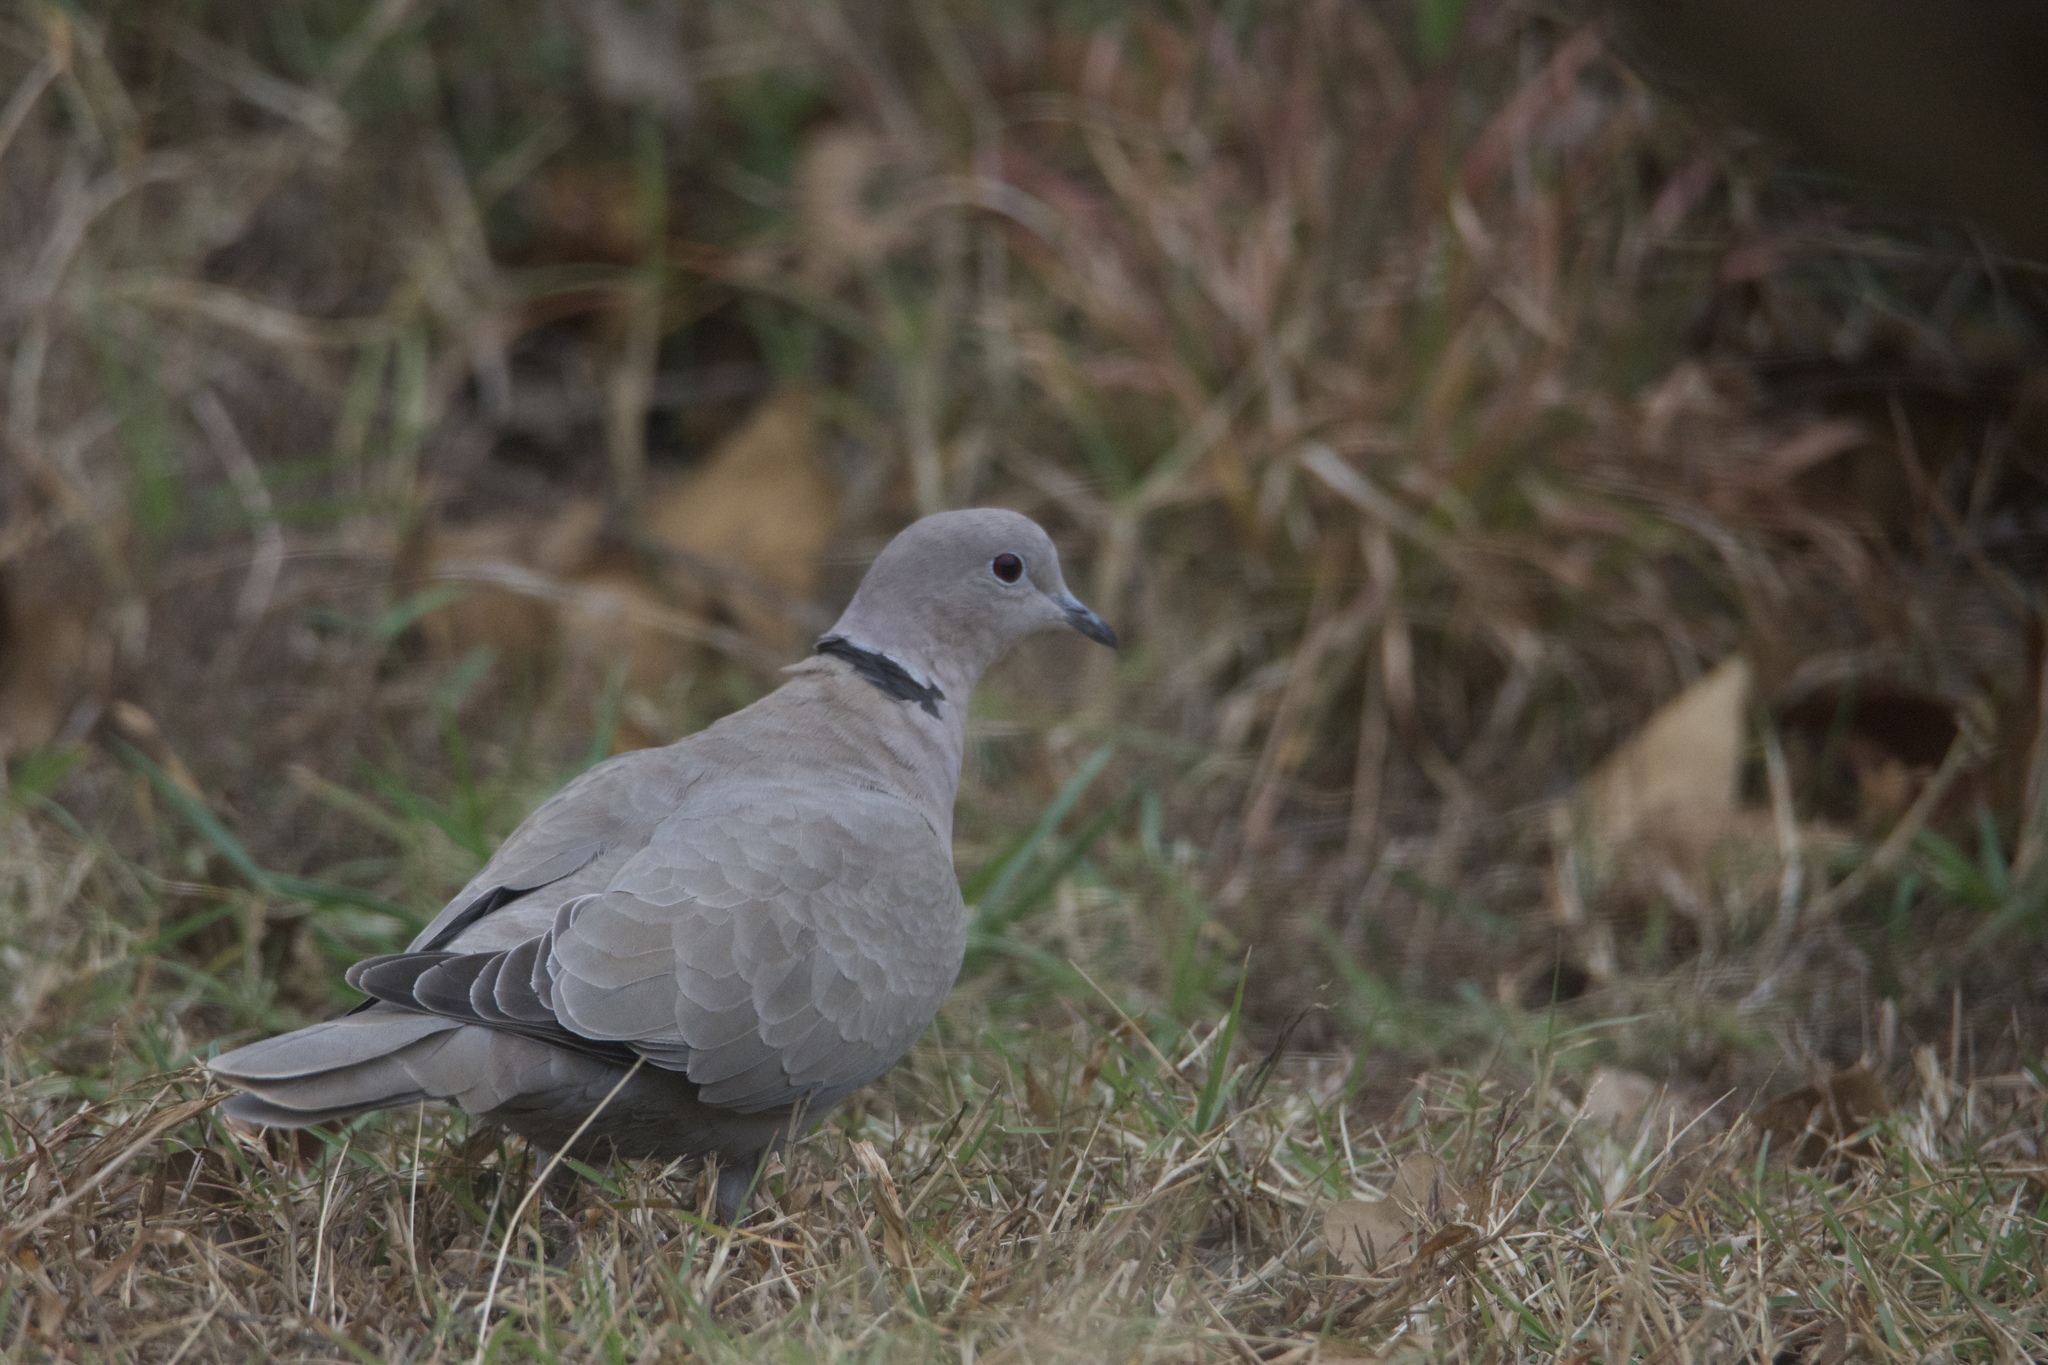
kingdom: Animalia
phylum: Chordata
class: Aves
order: Columbiformes
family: Columbidae
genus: Streptopelia
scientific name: Streptopelia decaocto
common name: Eurasian collared dove
